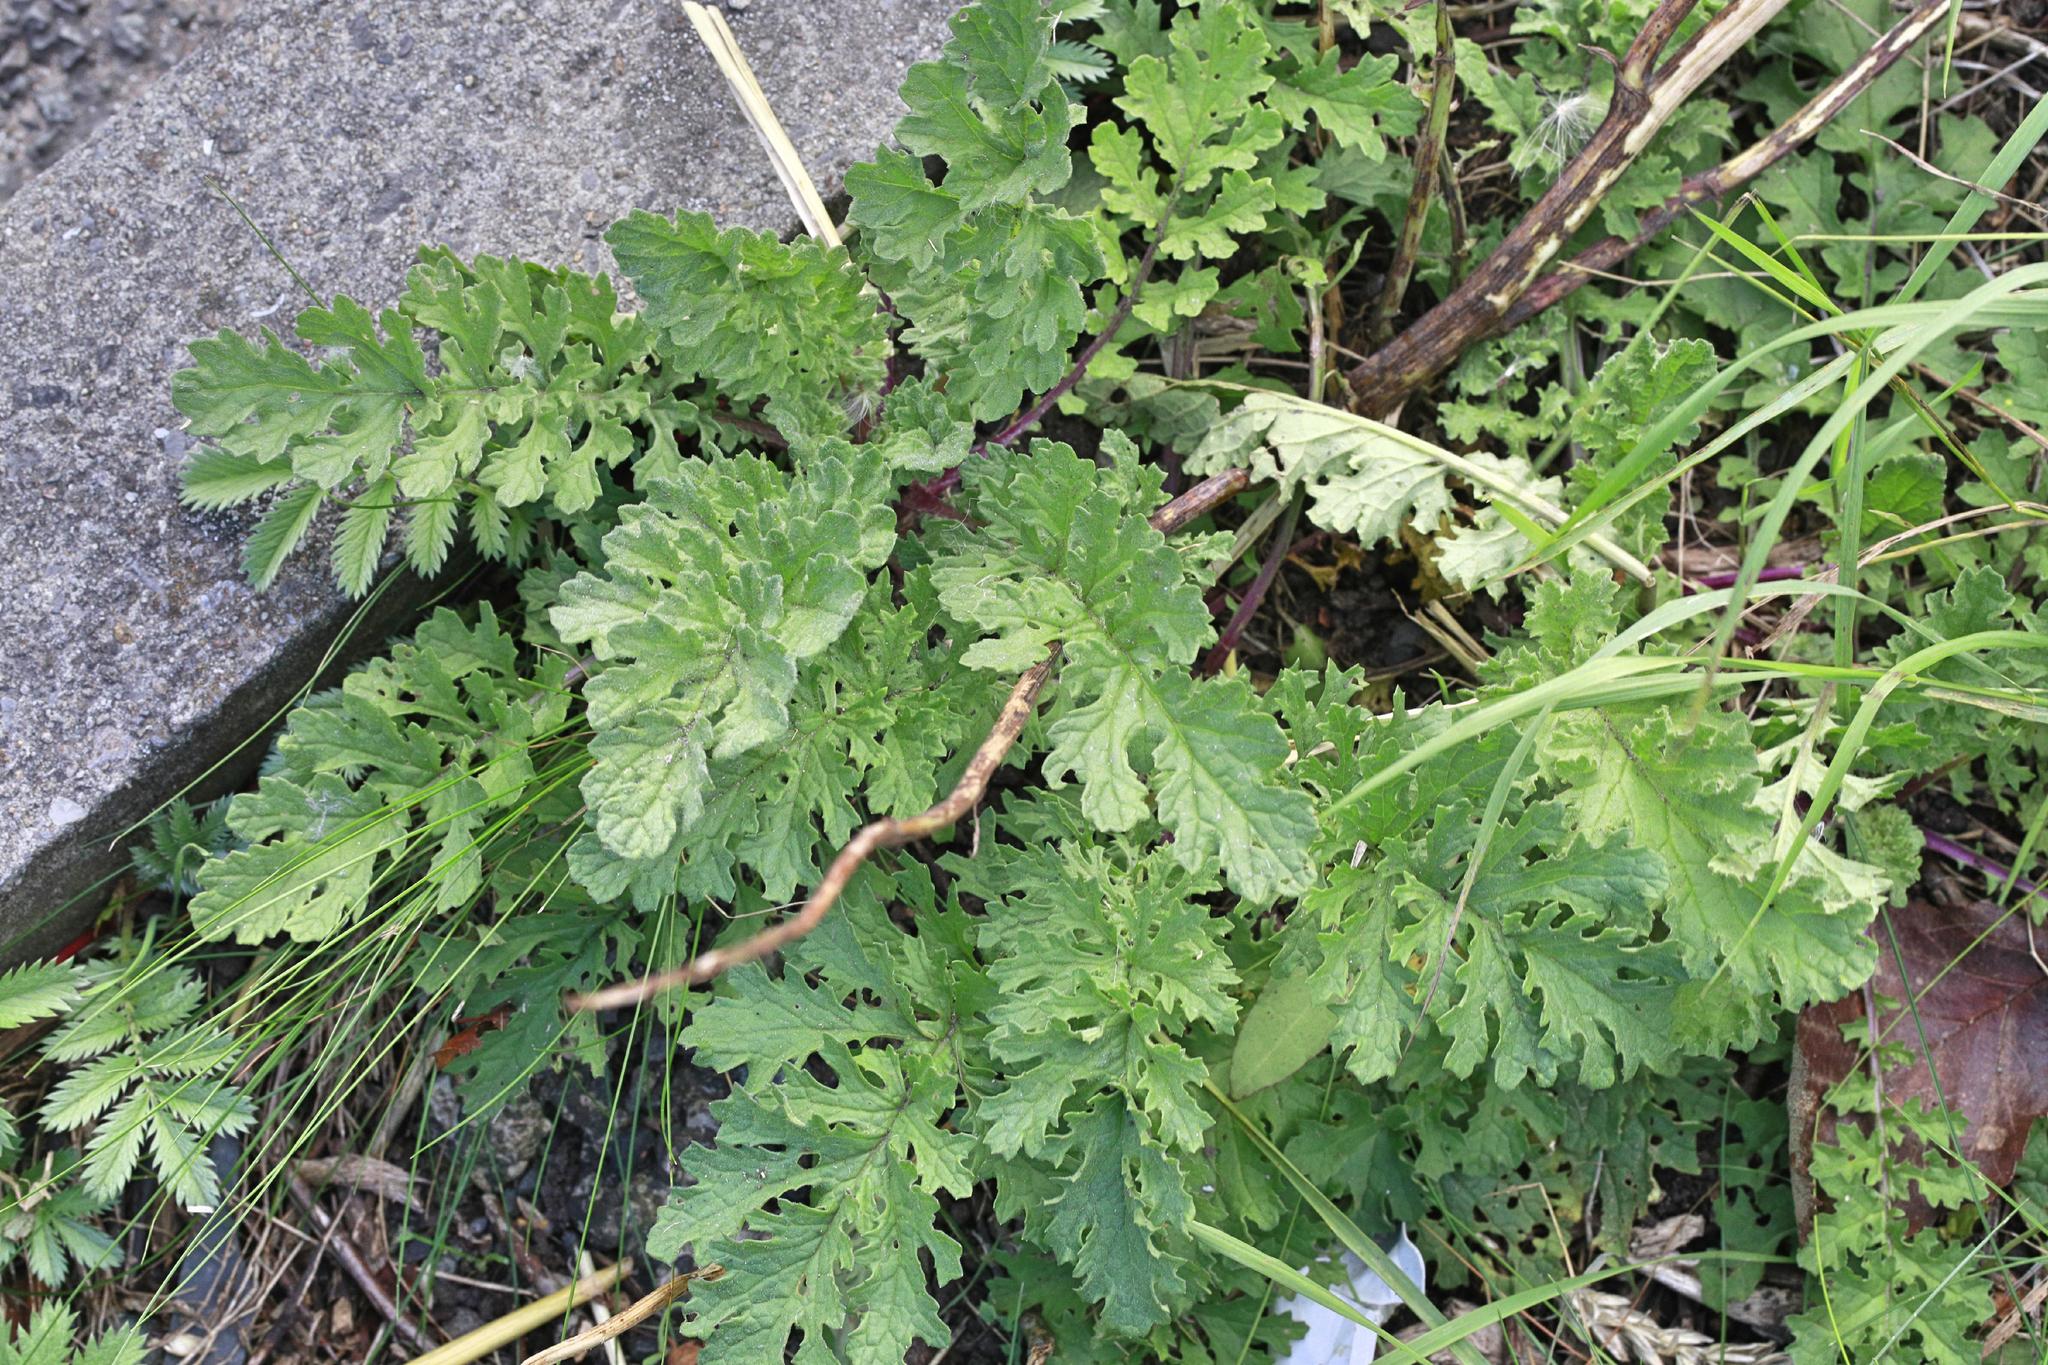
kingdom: Plantae
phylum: Tracheophyta
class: Magnoliopsida
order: Asterales
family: Asteraceae
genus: Jacobaea
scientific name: Jacobaea vulgaris
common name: Stinking willie
